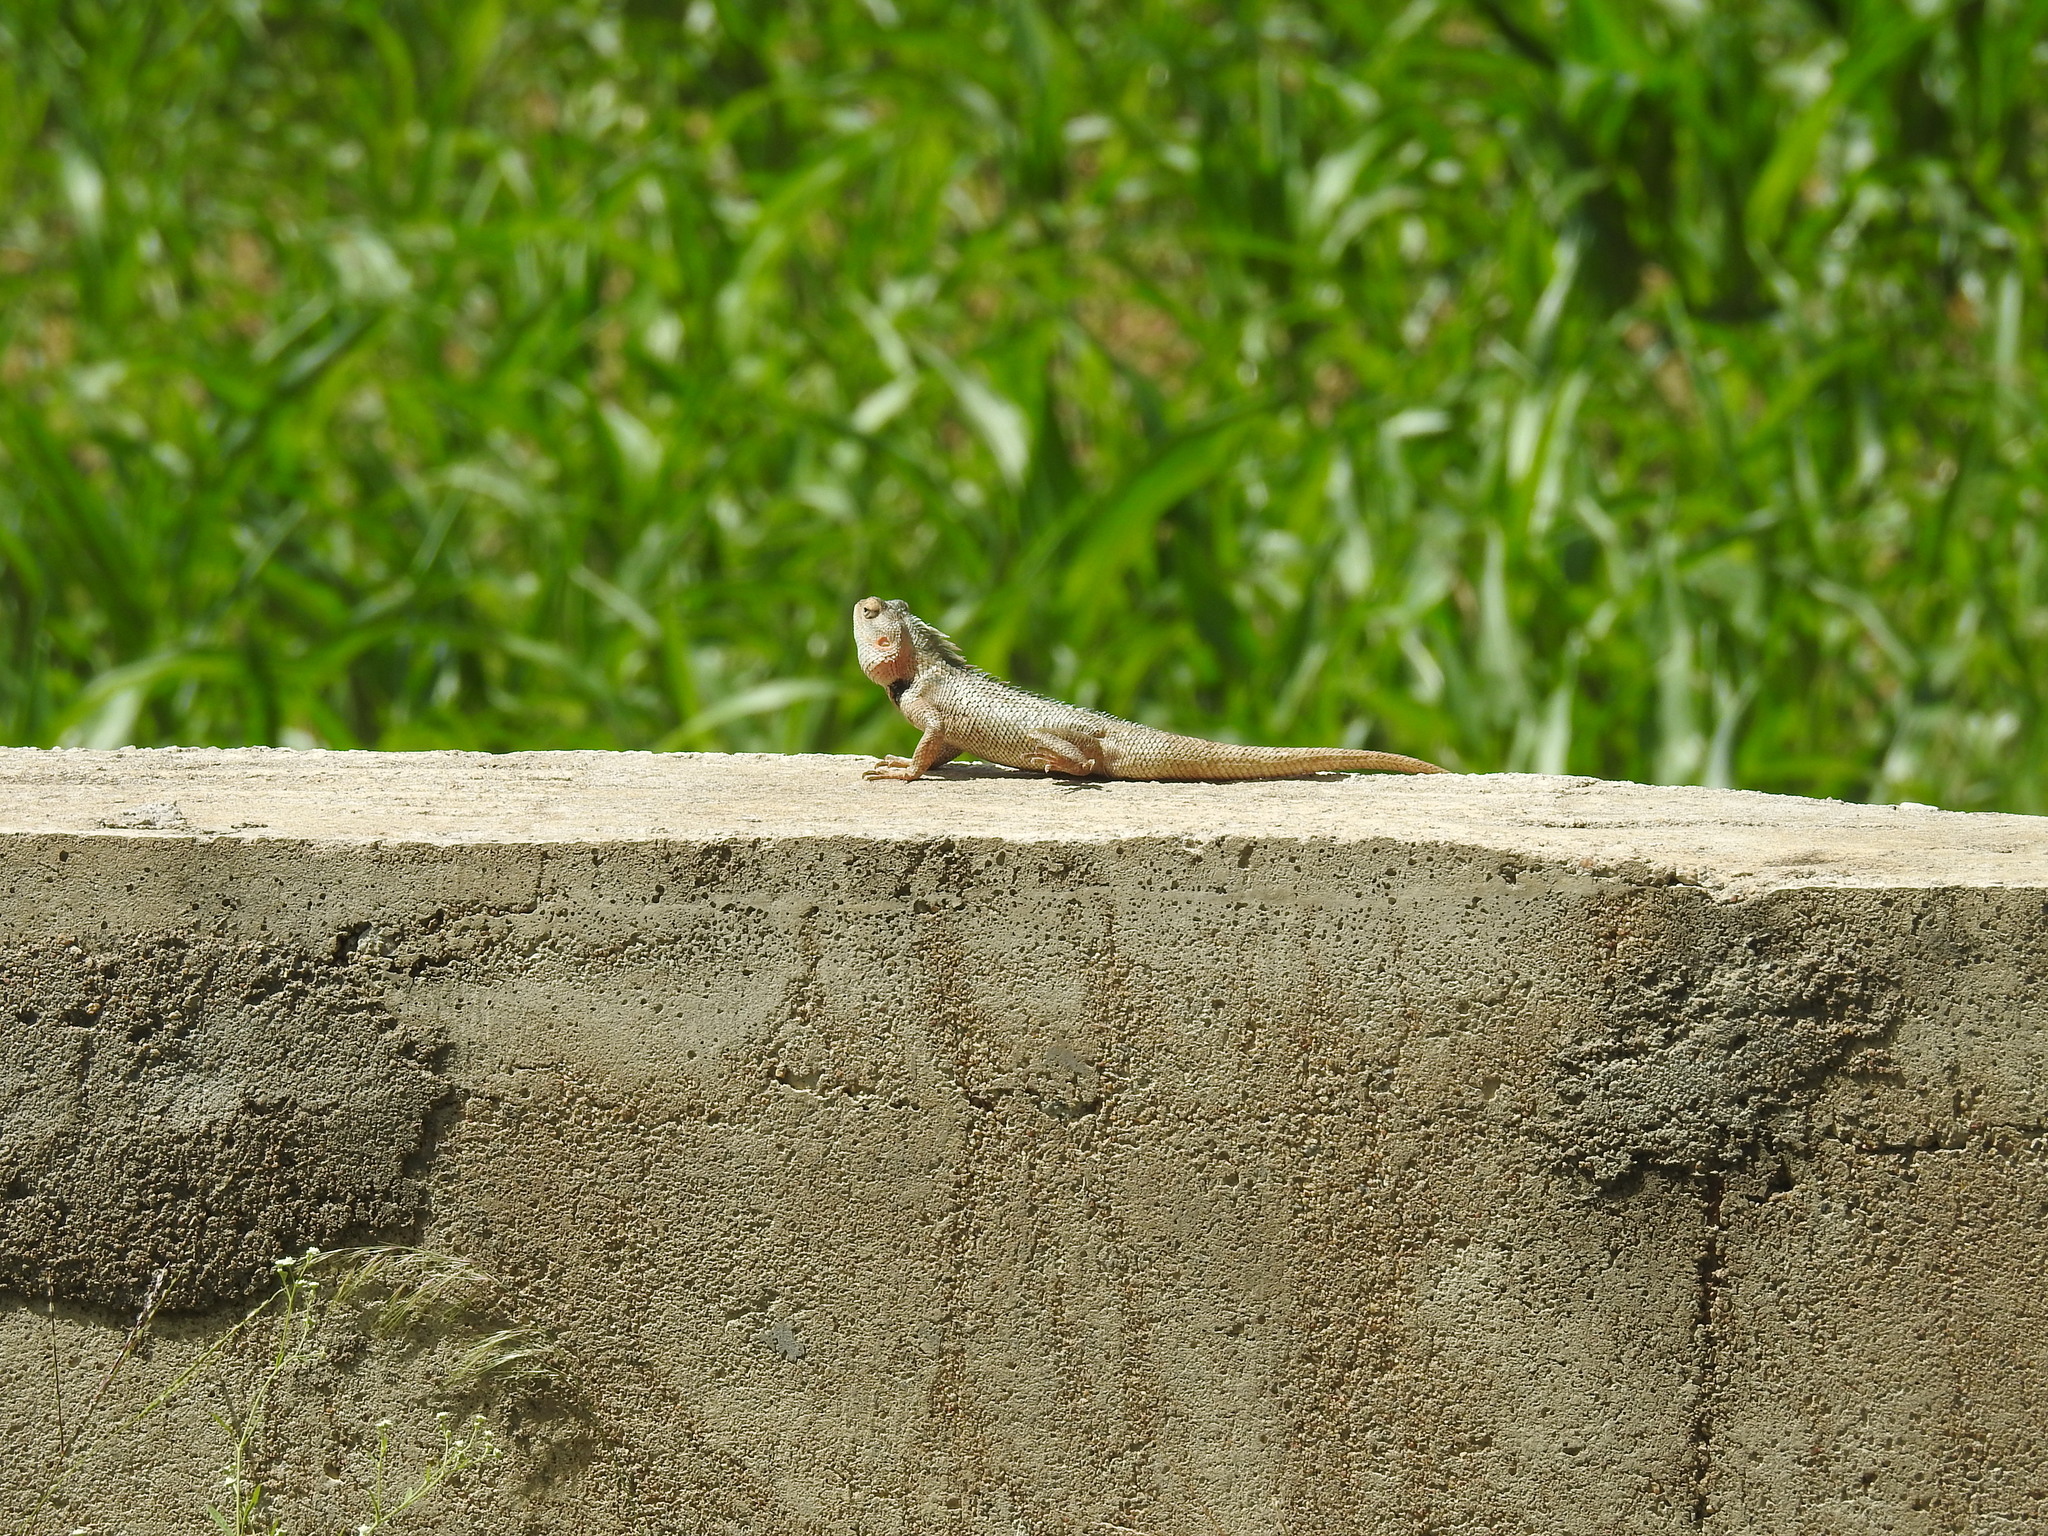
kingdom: Animalia
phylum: Chordata
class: Squamata
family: Agamidae
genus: Calotes
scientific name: Calotes versicolor
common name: Oriental garden lizard
